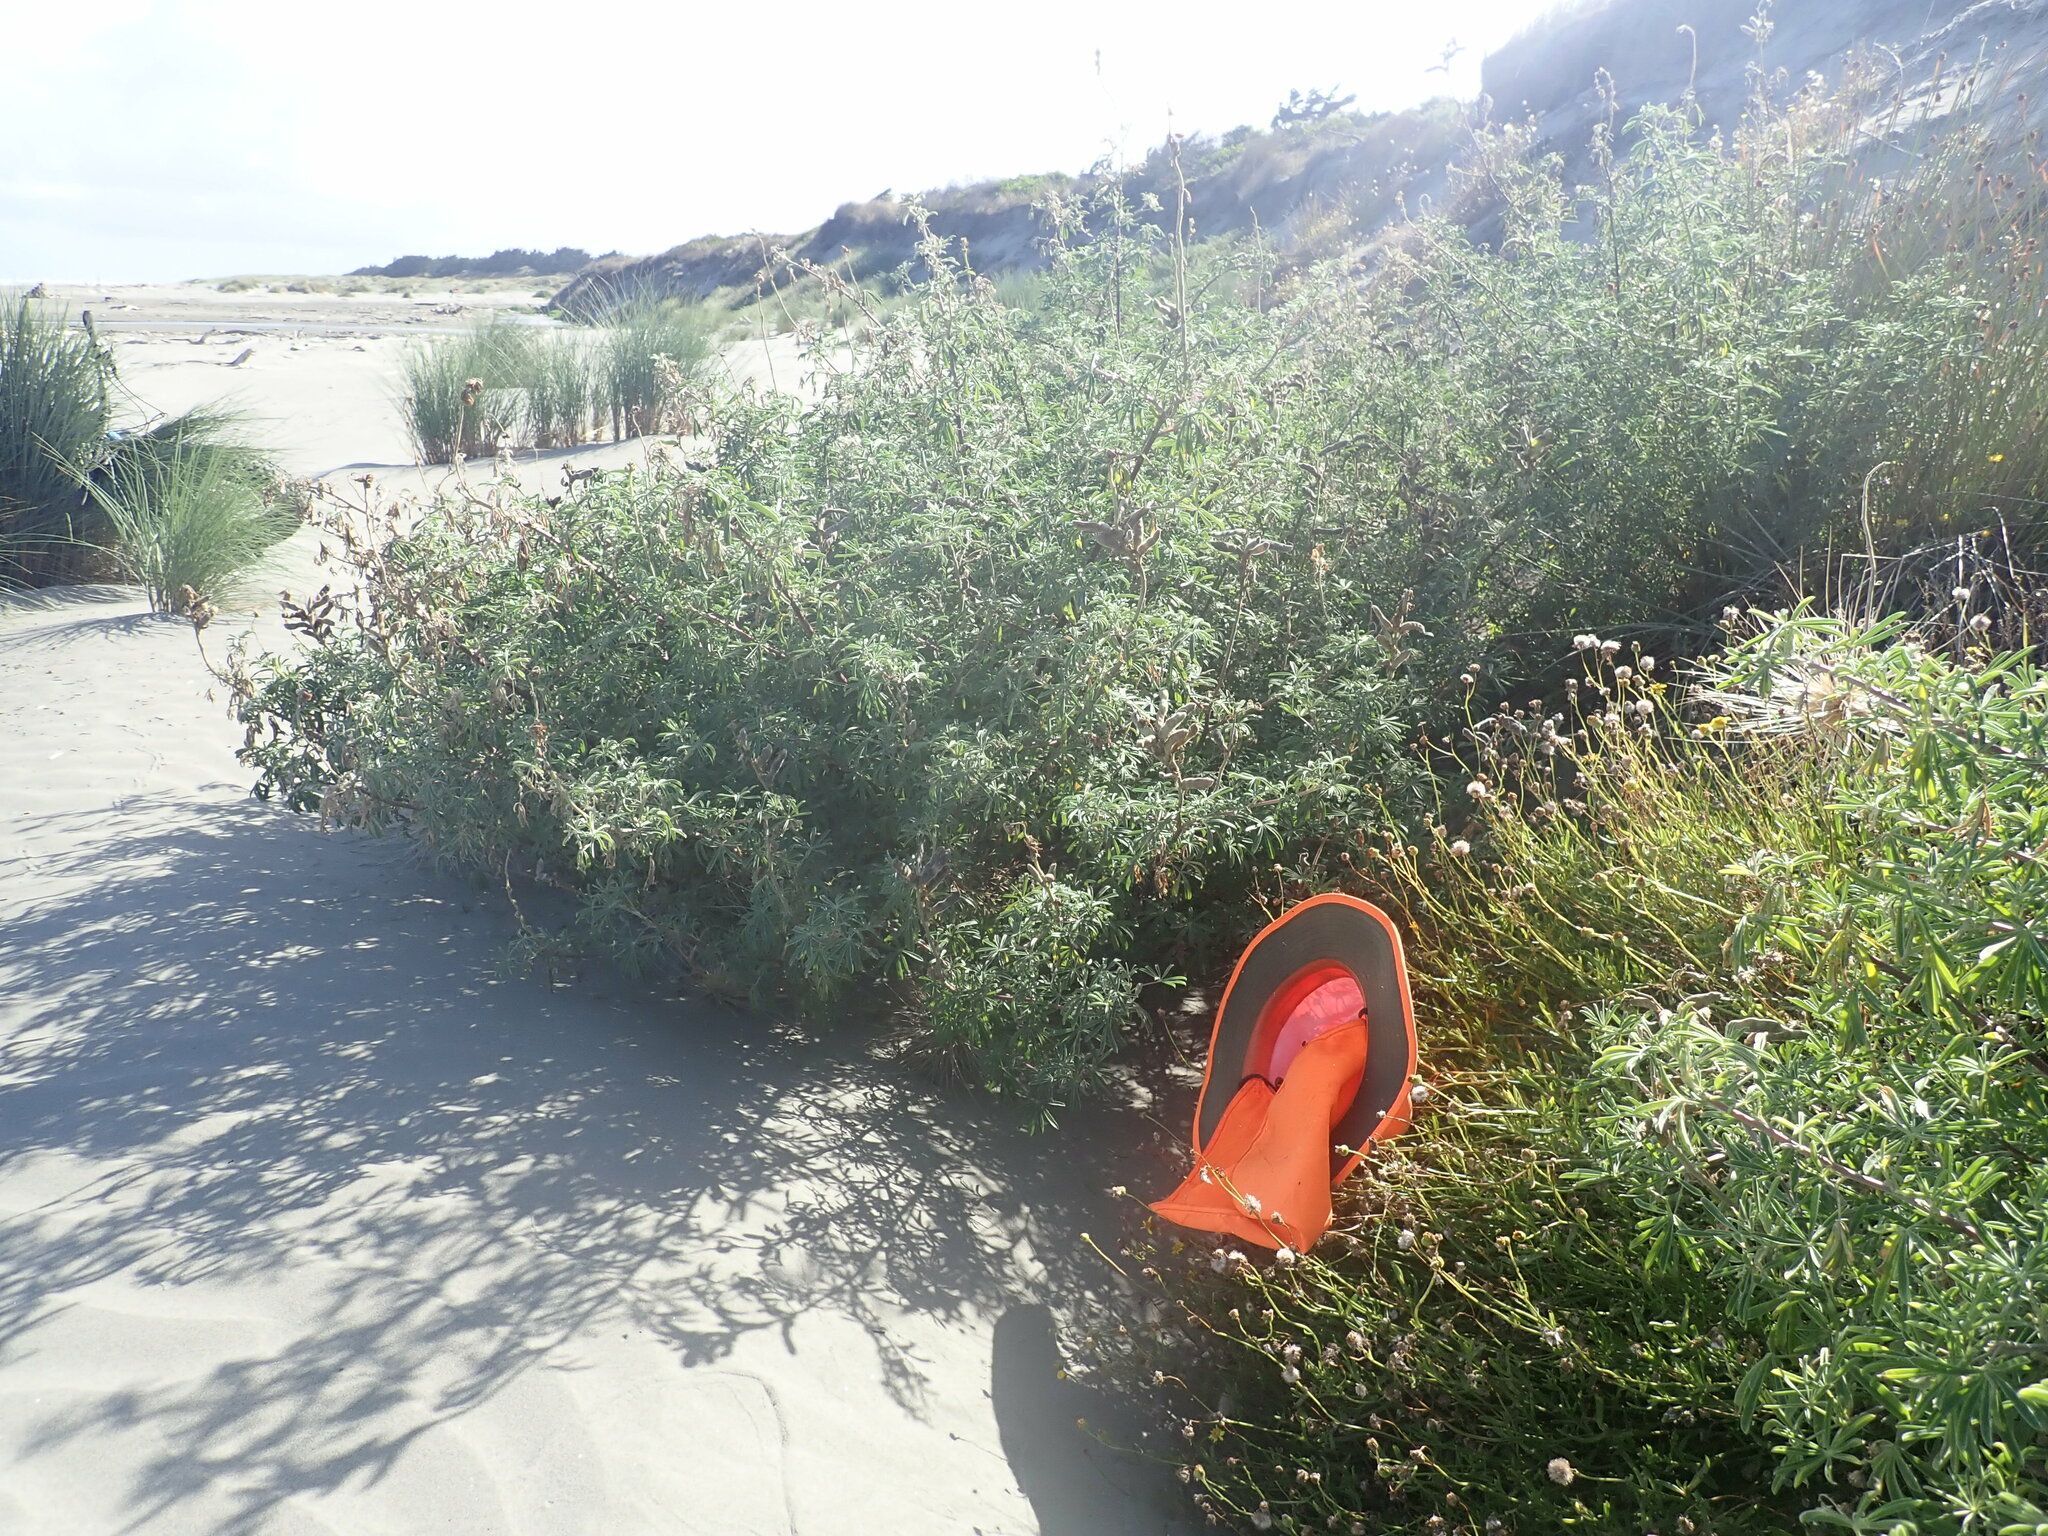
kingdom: Plantae
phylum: Tracheophyta
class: Magnoliopsida
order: Asterales
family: Asteraceae
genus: Senecio
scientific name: Senecio skirrhodon
